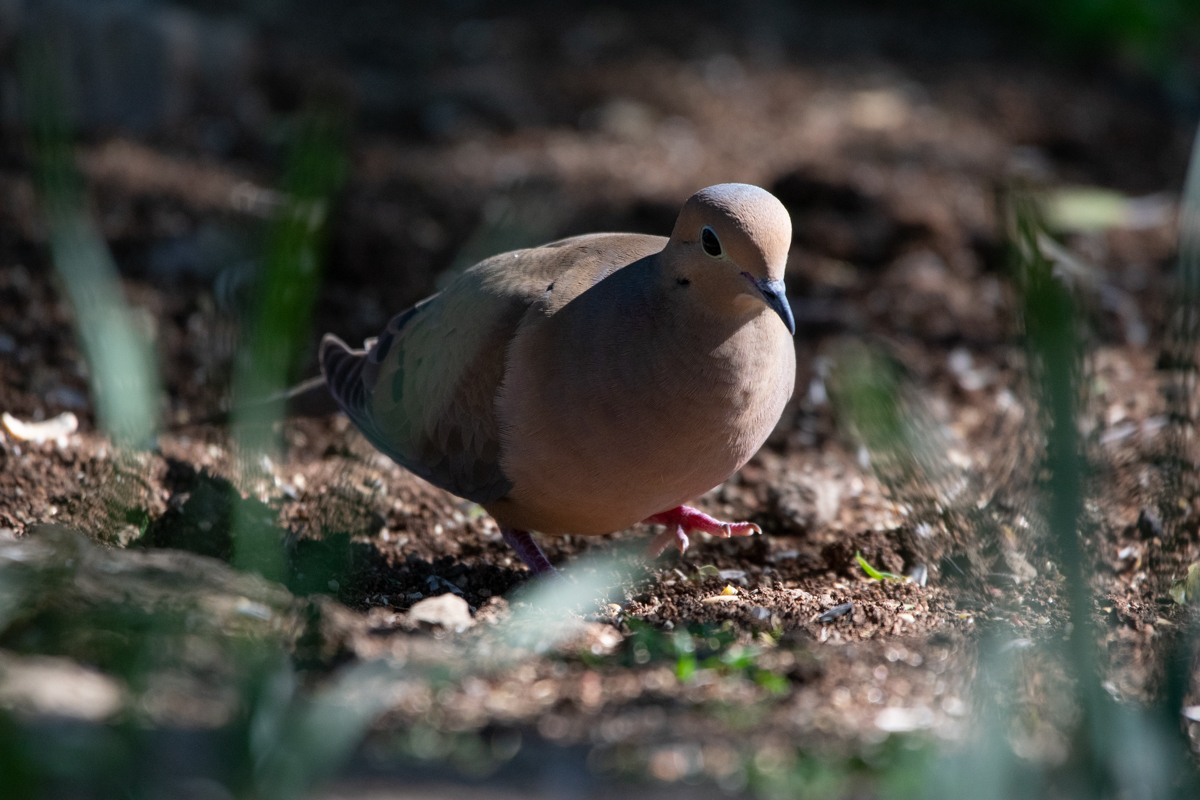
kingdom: Animalia
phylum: Chordata
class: Aves
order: Columbiformes
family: Columbidae
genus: Zenaida
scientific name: Zenaida macroura
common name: Mourning dove
